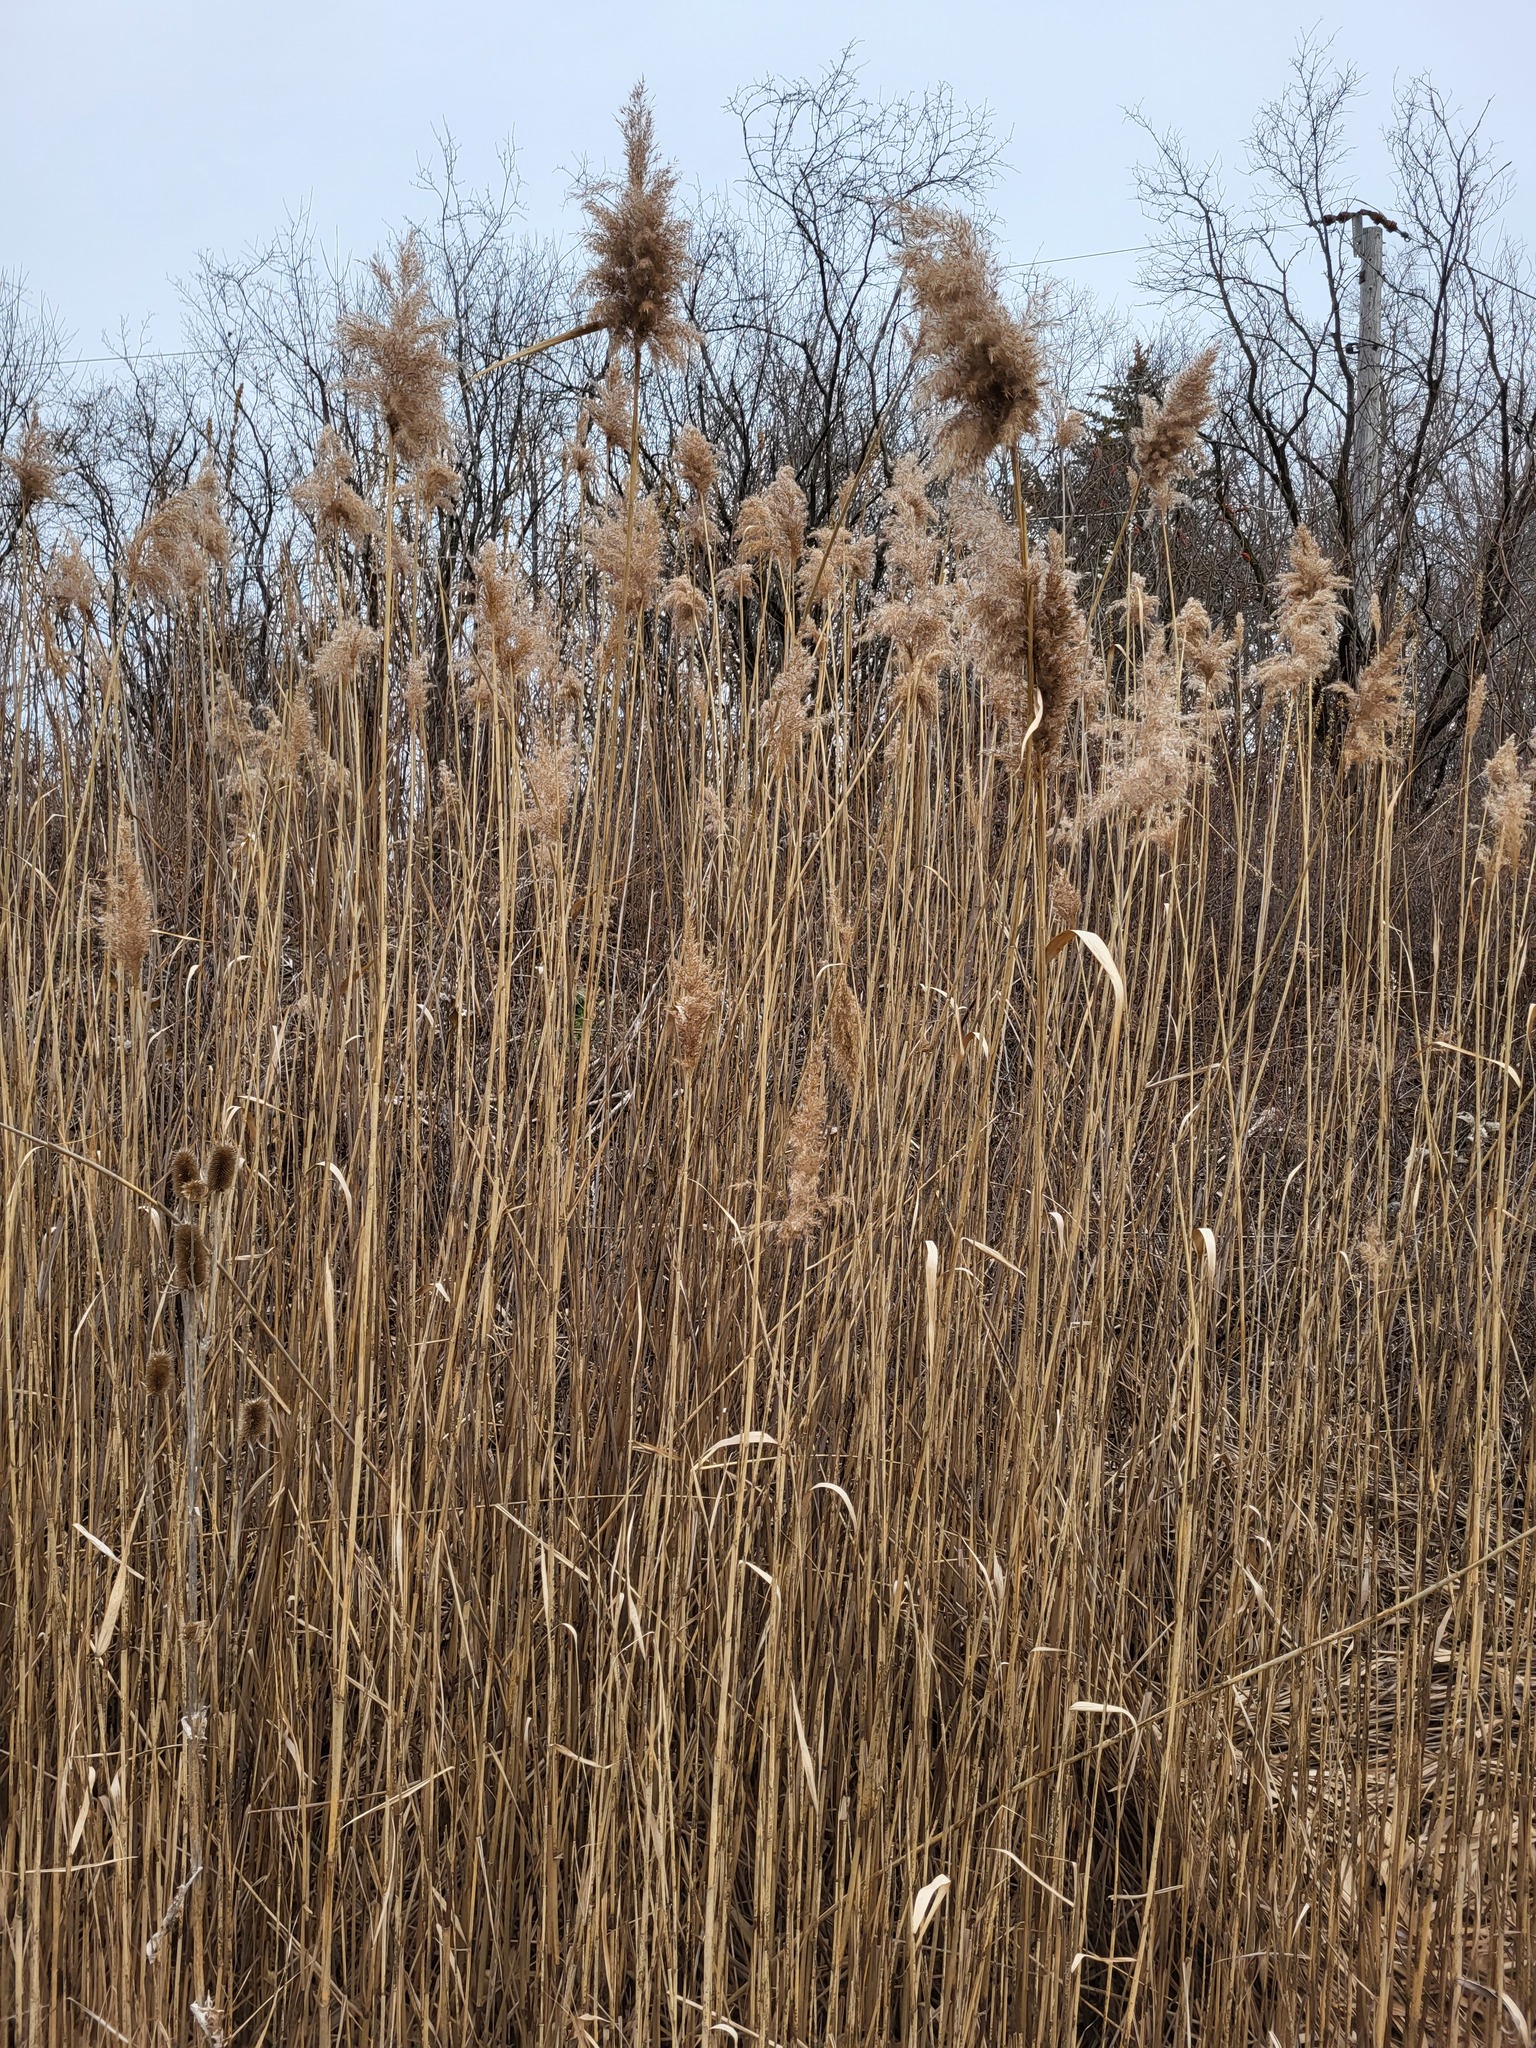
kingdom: Plantae
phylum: Tracheophyta
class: Liliopsida
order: Poales
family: Poaceae
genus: Phragmites
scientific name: Phragmites australis
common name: Common reed
